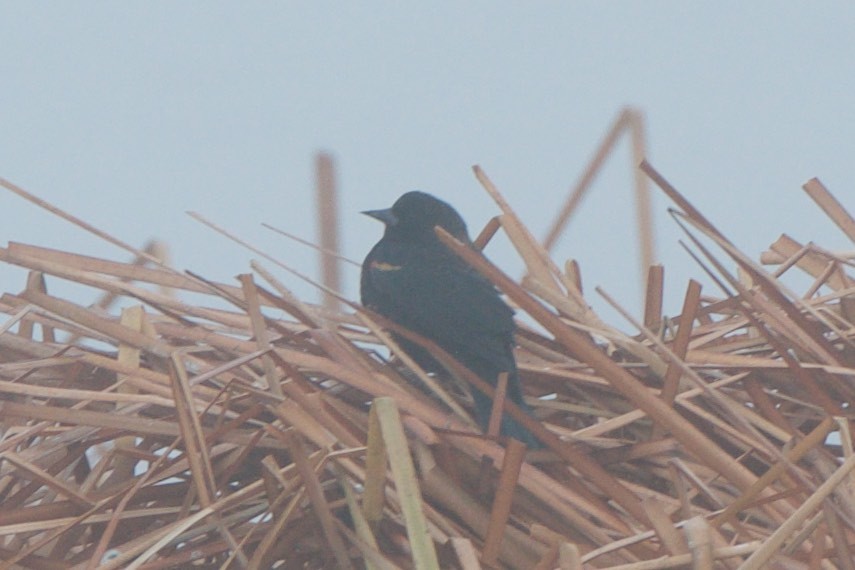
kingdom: Animalia
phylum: Chordata
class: Aves
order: Passeriformes
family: Icteridae
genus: Agelaius
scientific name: Agelaius phoeniceus
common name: Red-winged blackbird
